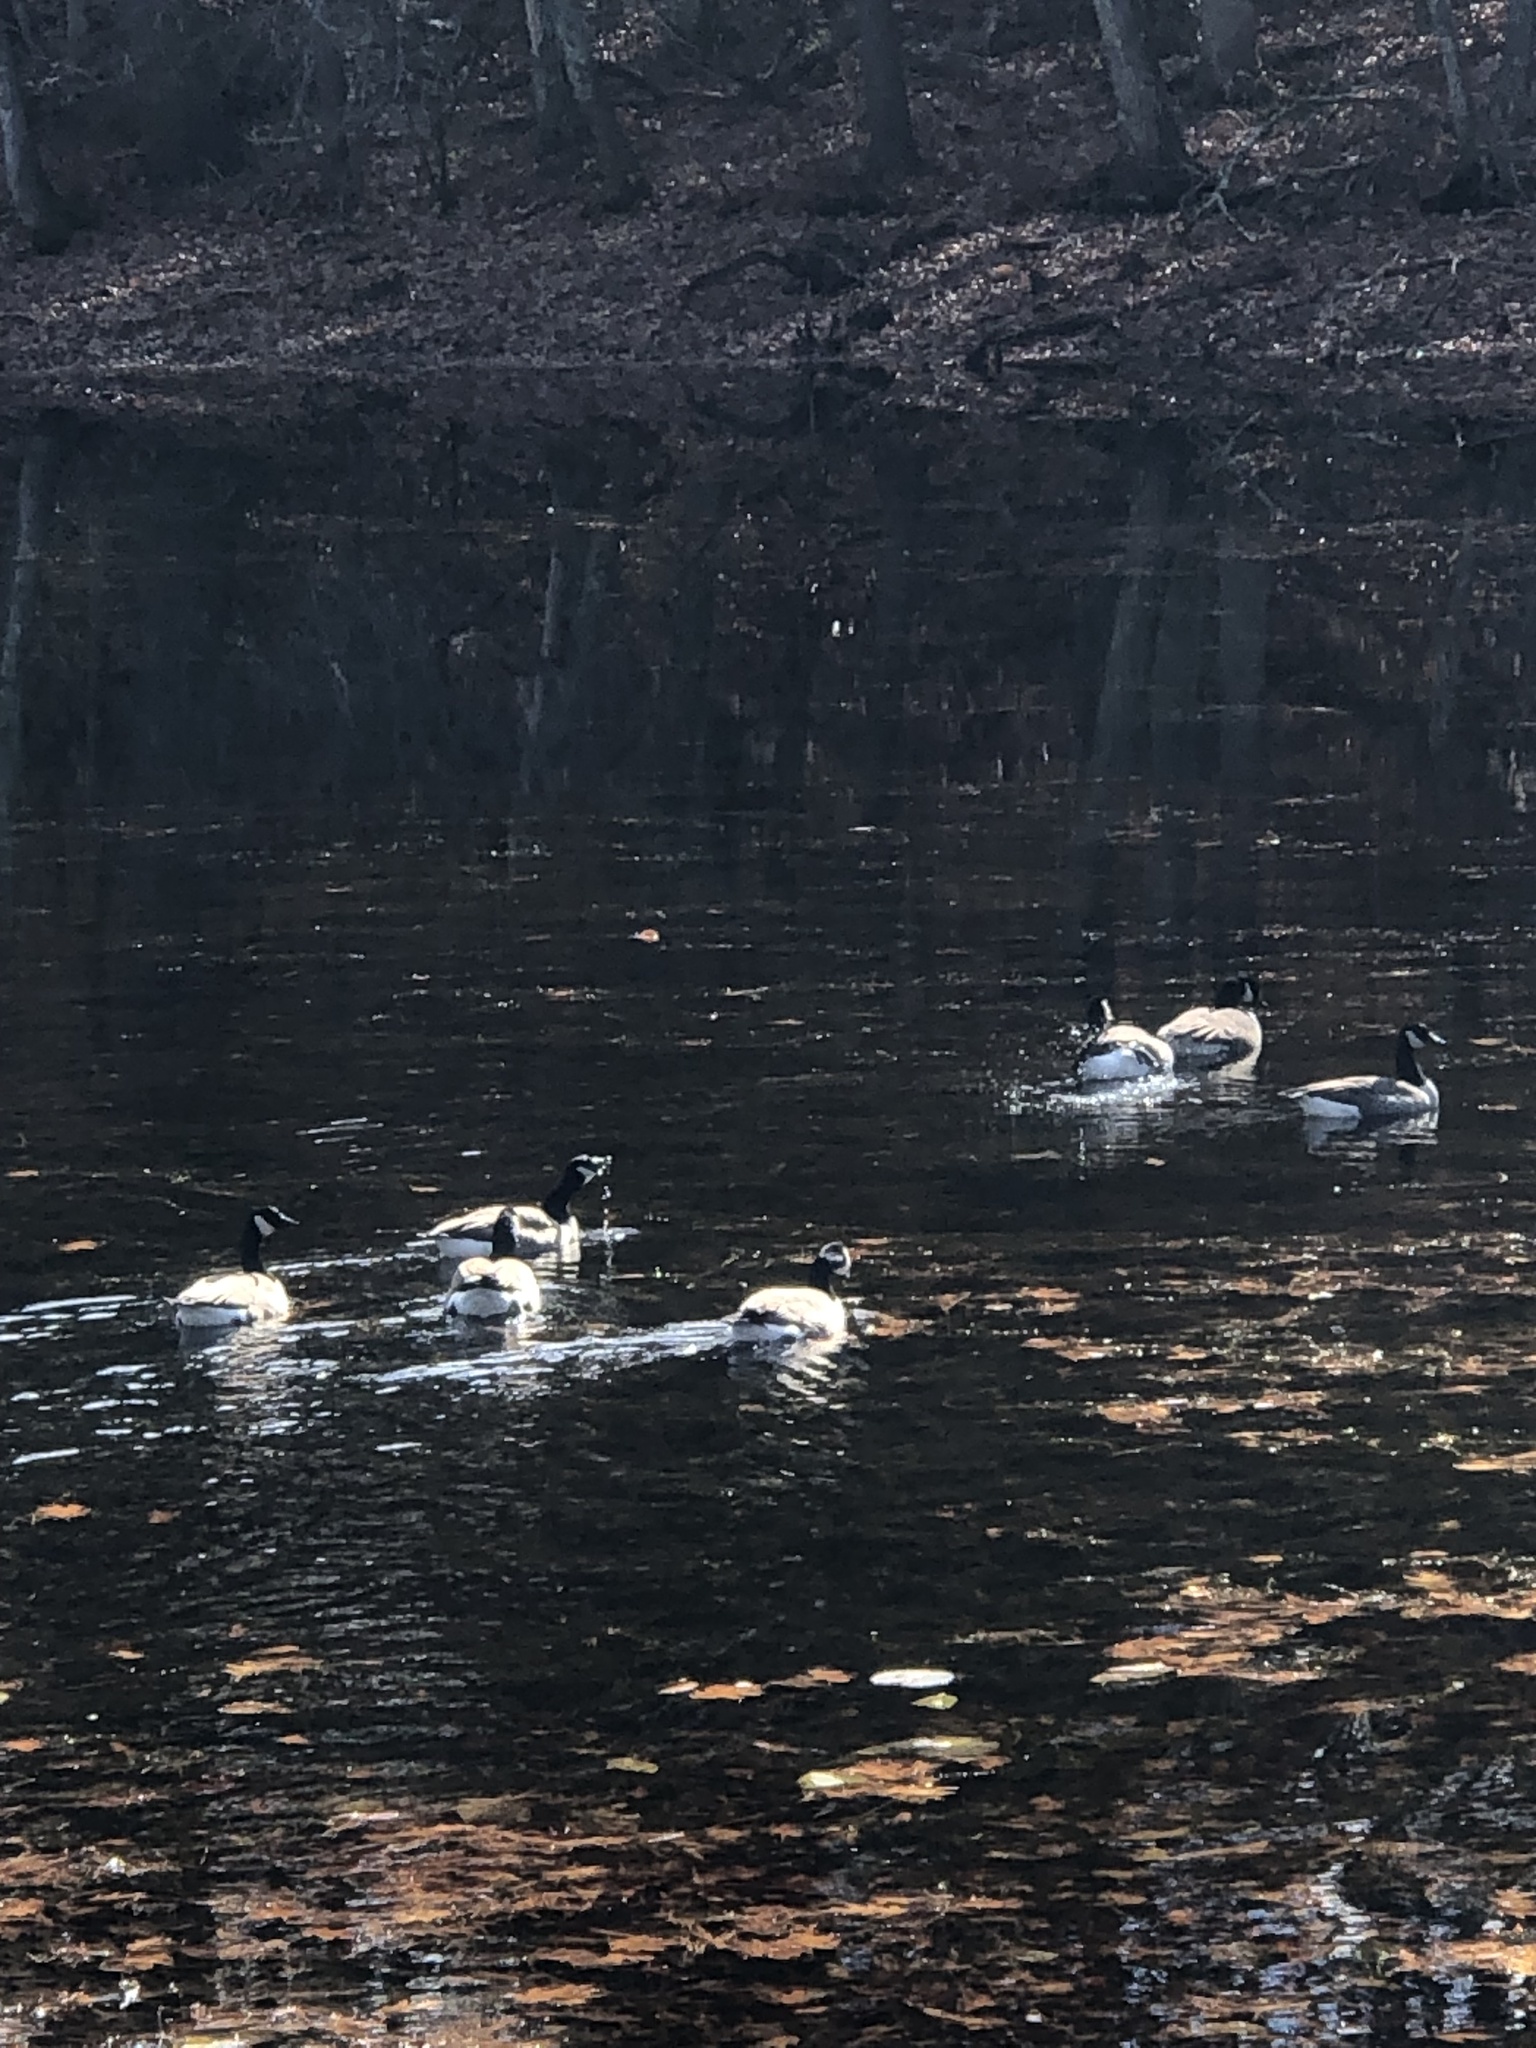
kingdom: Animalia
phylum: Chordata
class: Aves
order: Anseriformes
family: Anatidae
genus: Branta
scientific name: Branta canadensis
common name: Canada goose
